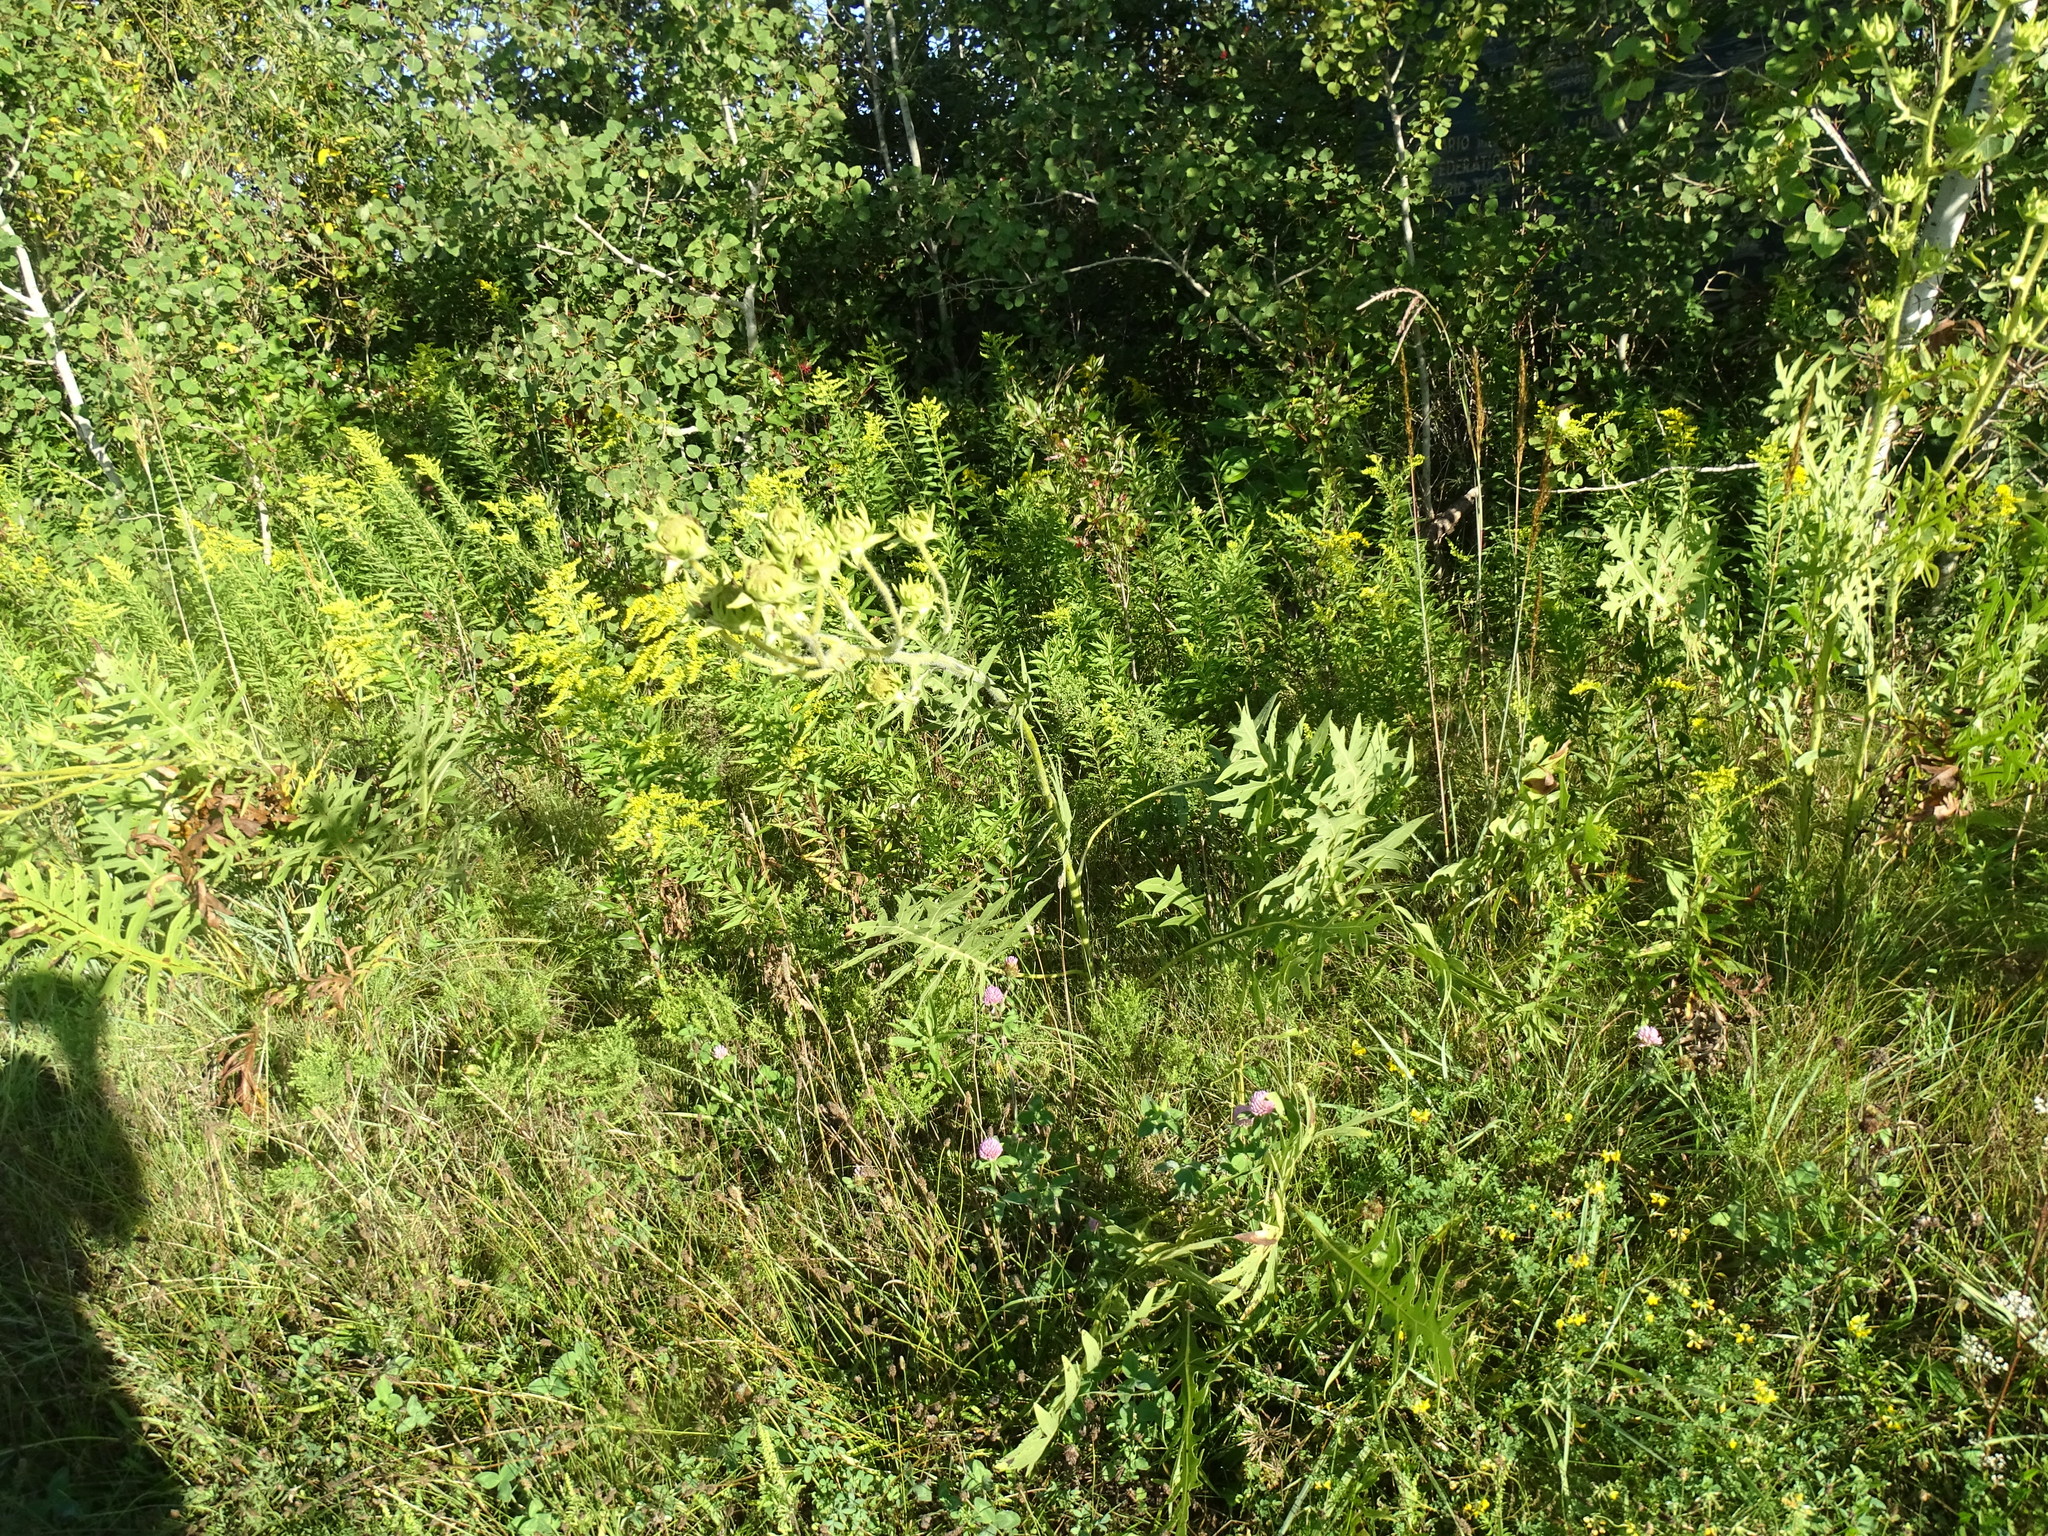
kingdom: Plantae
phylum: Tracheophyta
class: Magnoliopsida
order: Asterales
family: Asteraceae
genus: Silphium
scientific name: Silphium laciniatum
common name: Polarplant
